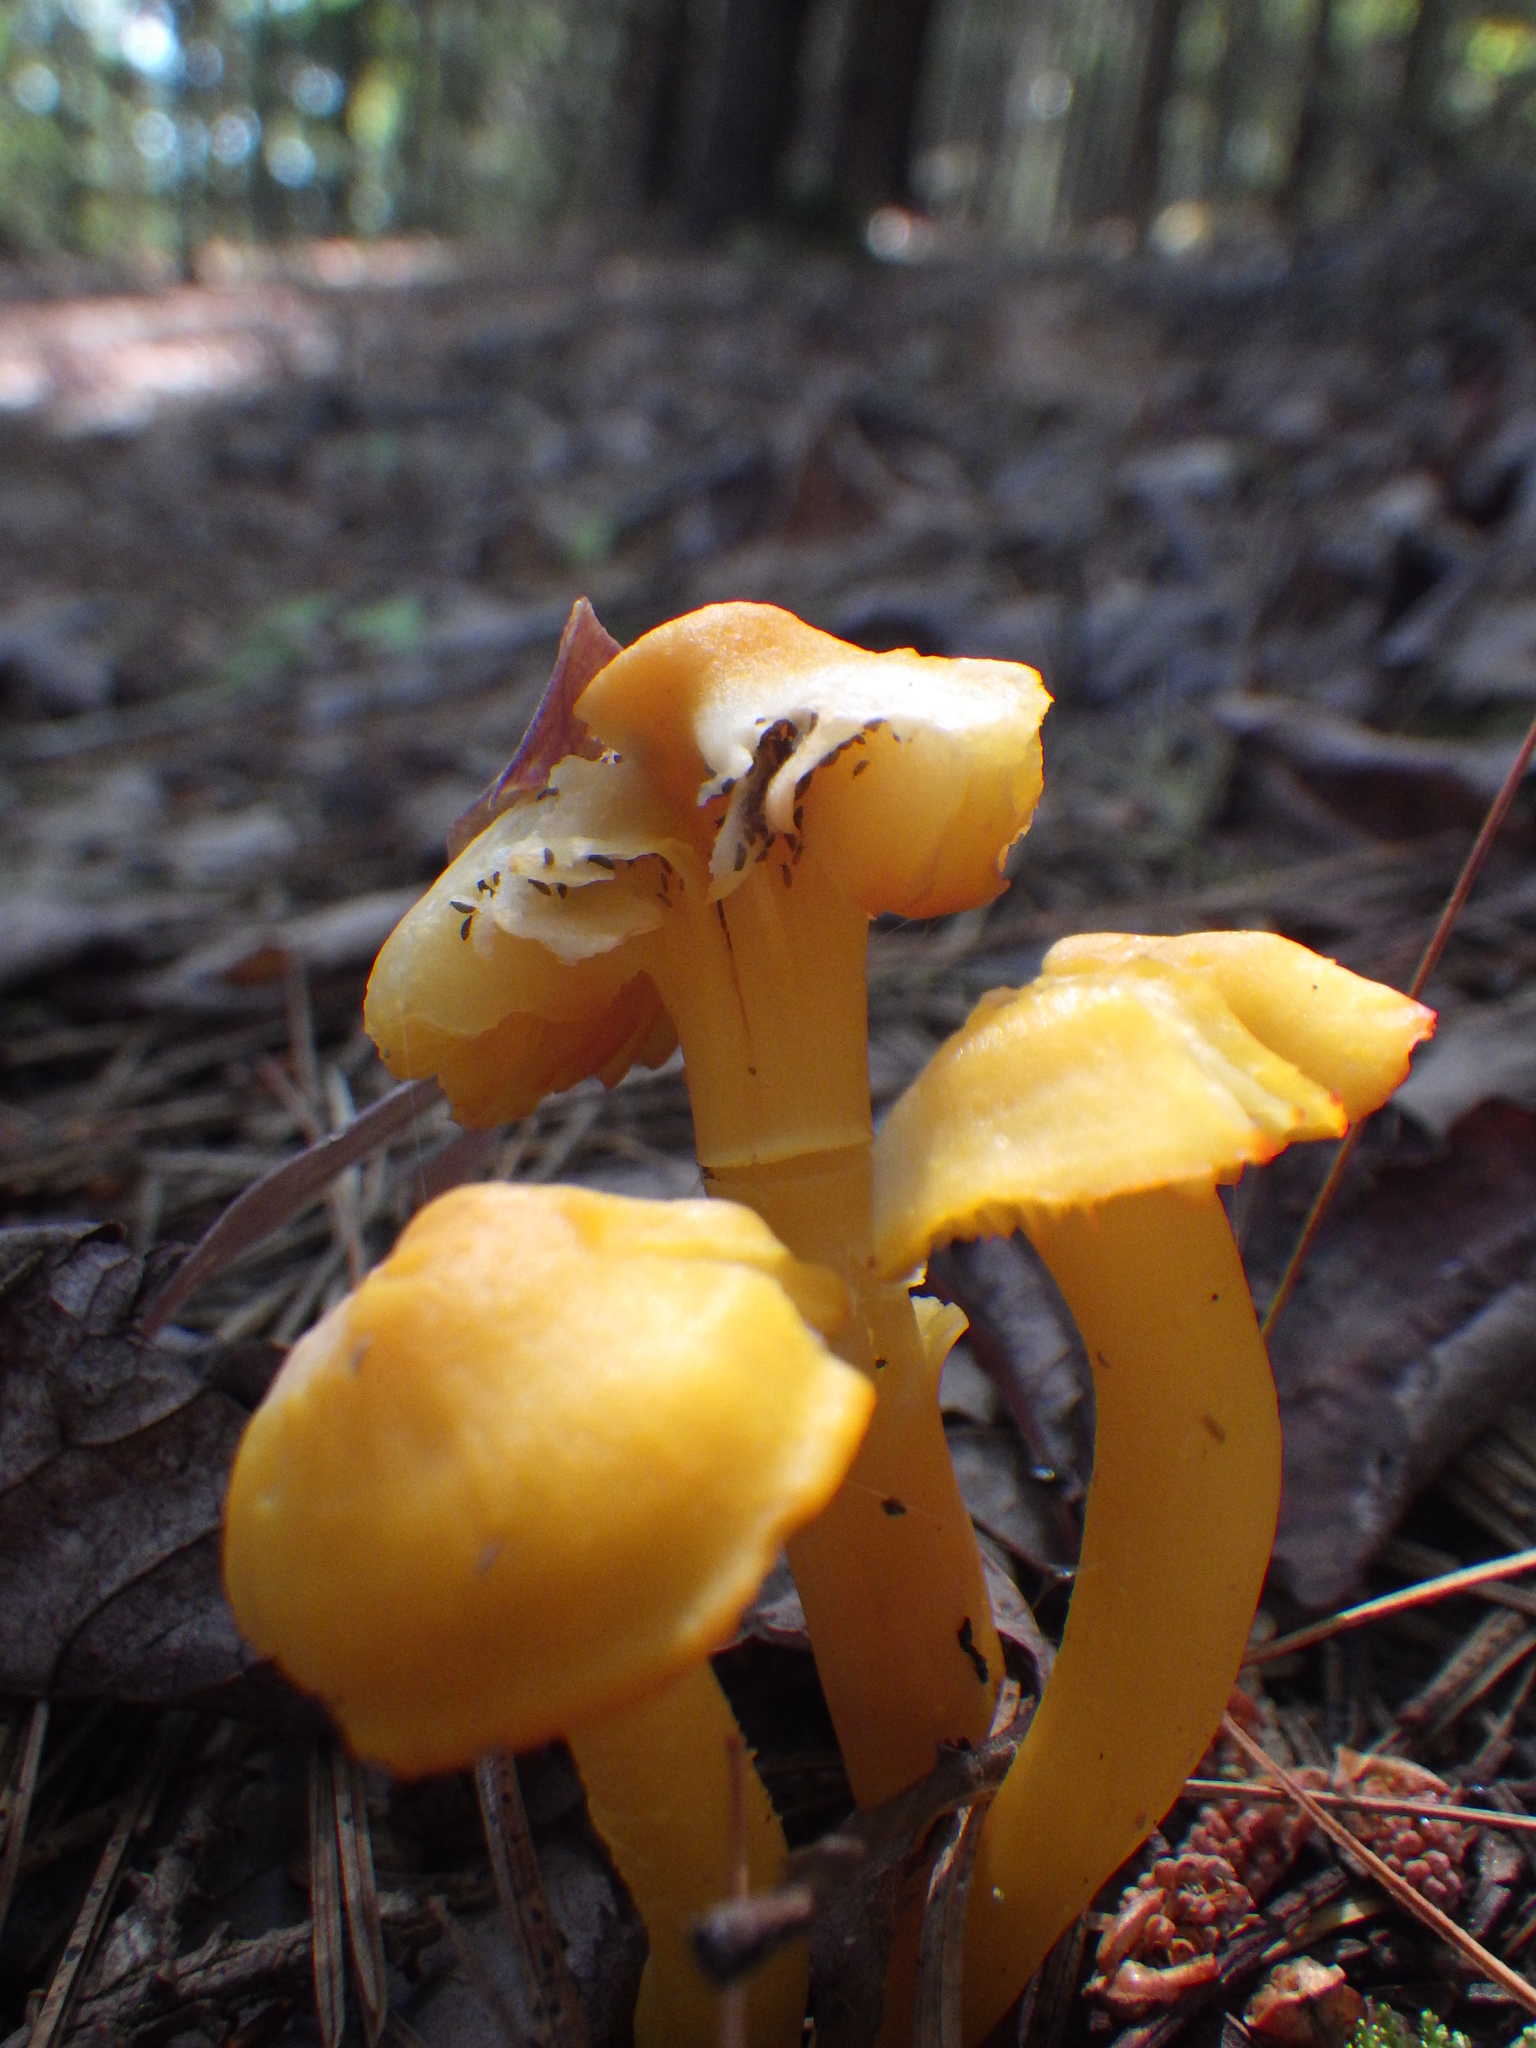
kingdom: Fungi
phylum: Basidiomycota
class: Agaricomycetes
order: Agaricales
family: Hygrophoraceae
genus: Humidicutis
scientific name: Humidicutis marginata
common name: Orange gilled waxcap
